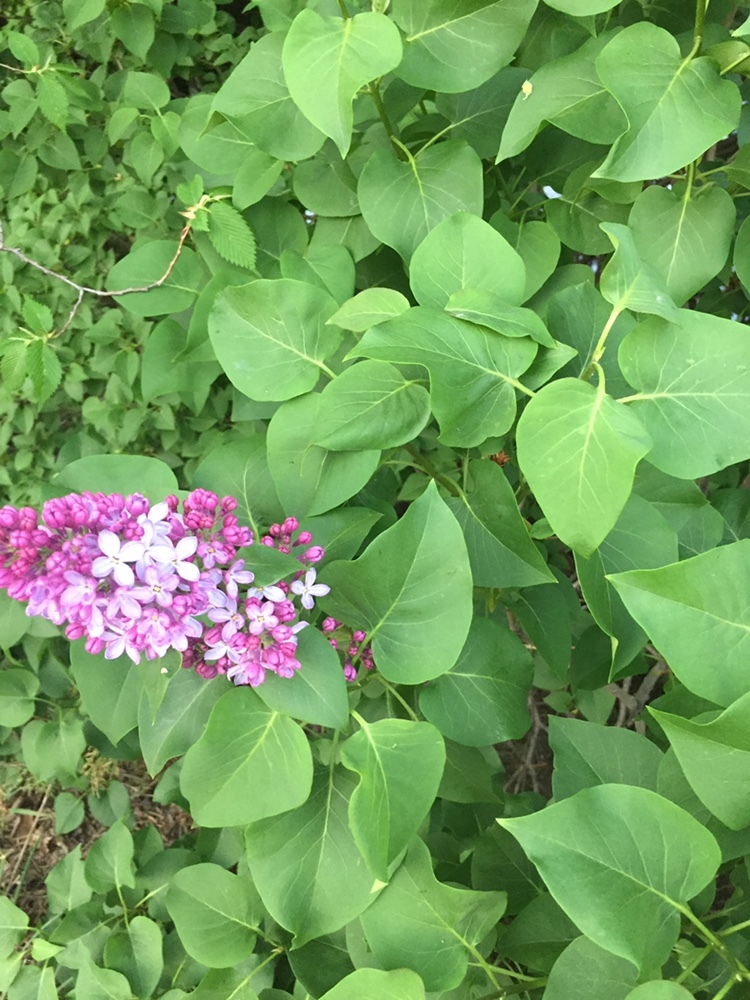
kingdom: Plantae
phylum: Tracheophyta
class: Magnoliopsida
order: Lamiales
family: Oleaceae
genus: Syringa
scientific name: Syringa vulgaris
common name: Common lilac
